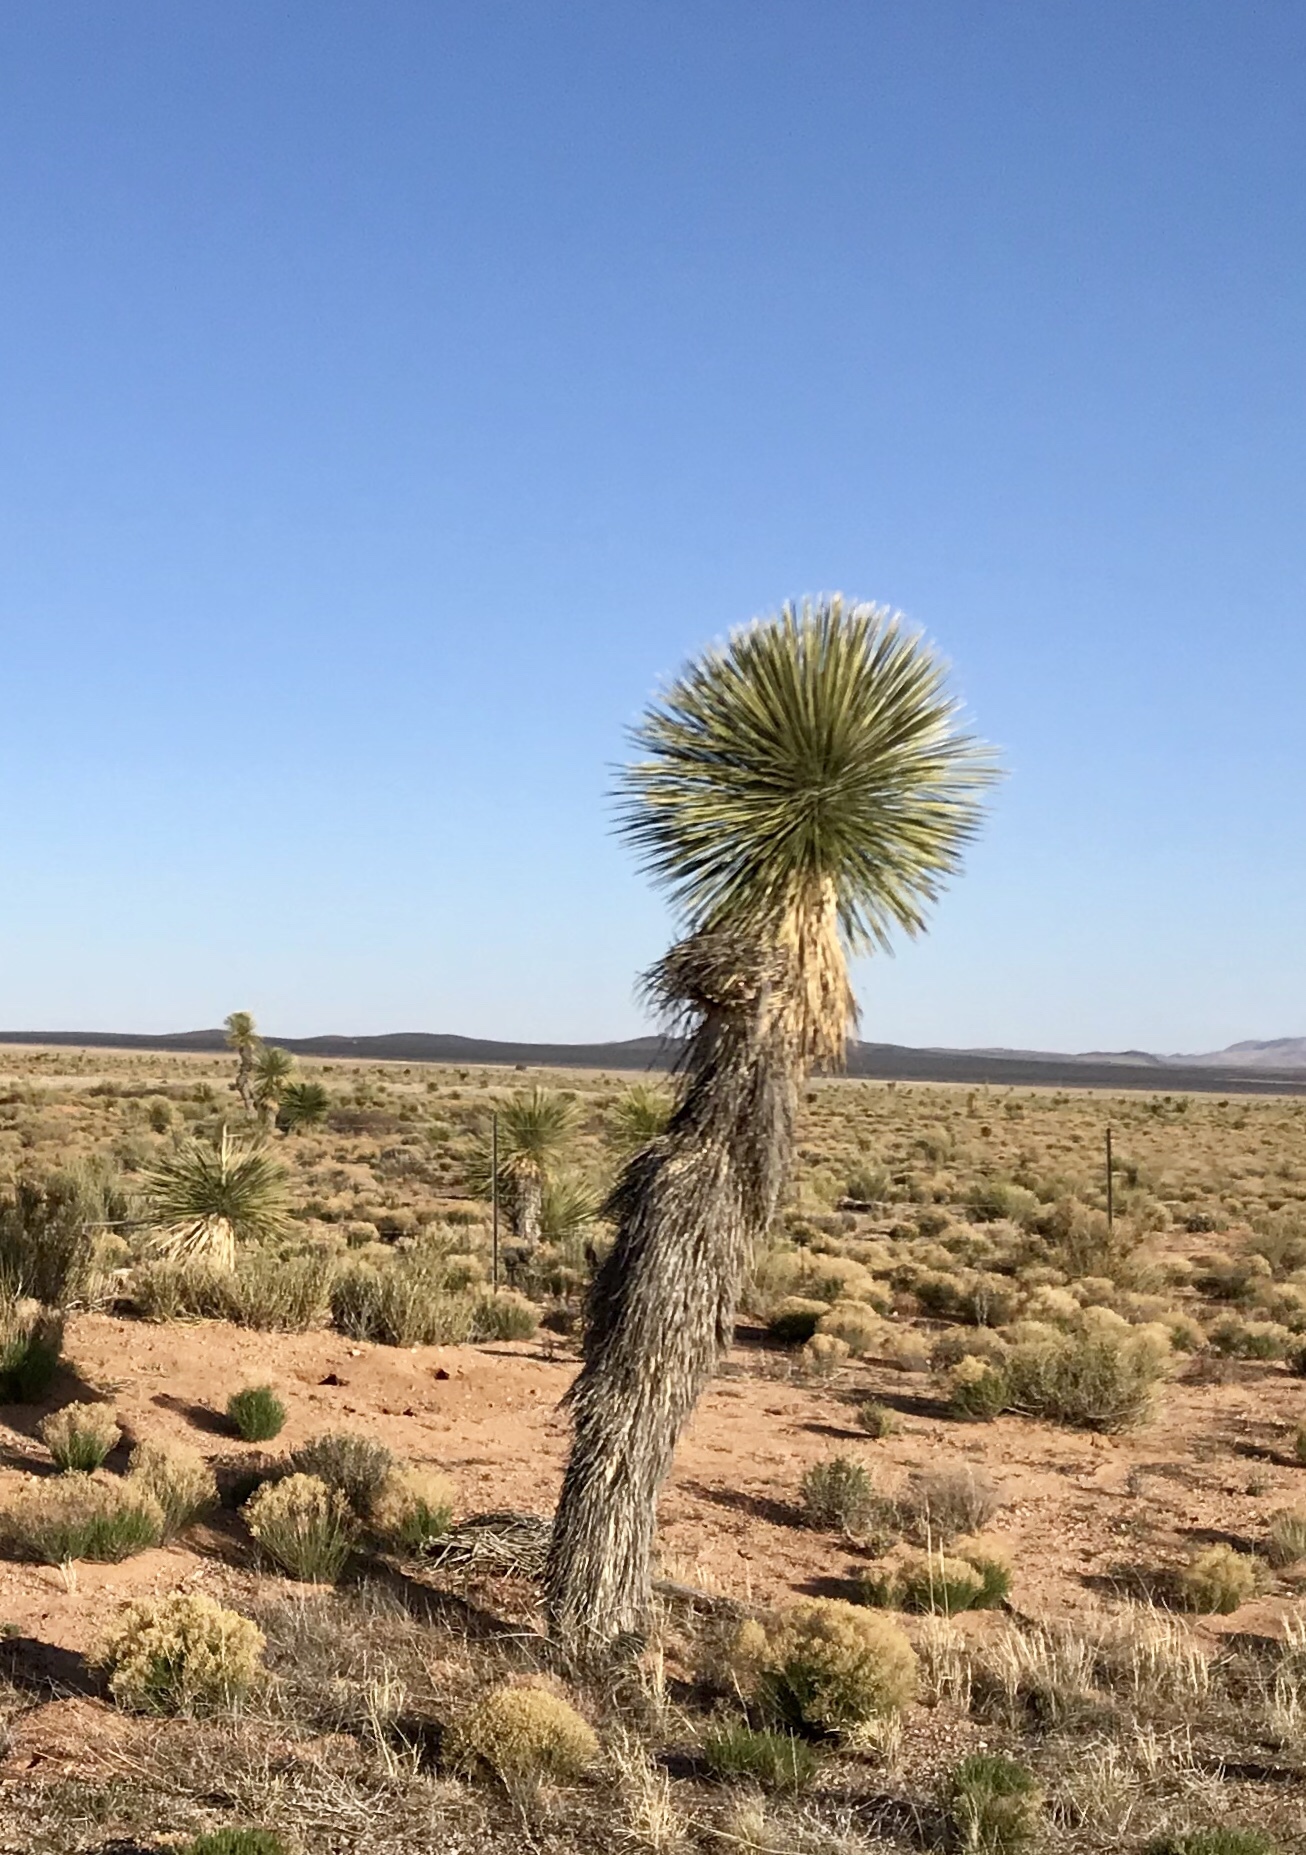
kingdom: Plantae
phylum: Tracheophyta
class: Liliopsida
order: Asparagales
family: Asparagaceae
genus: Yucca
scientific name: Yucca elata
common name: Palmella
